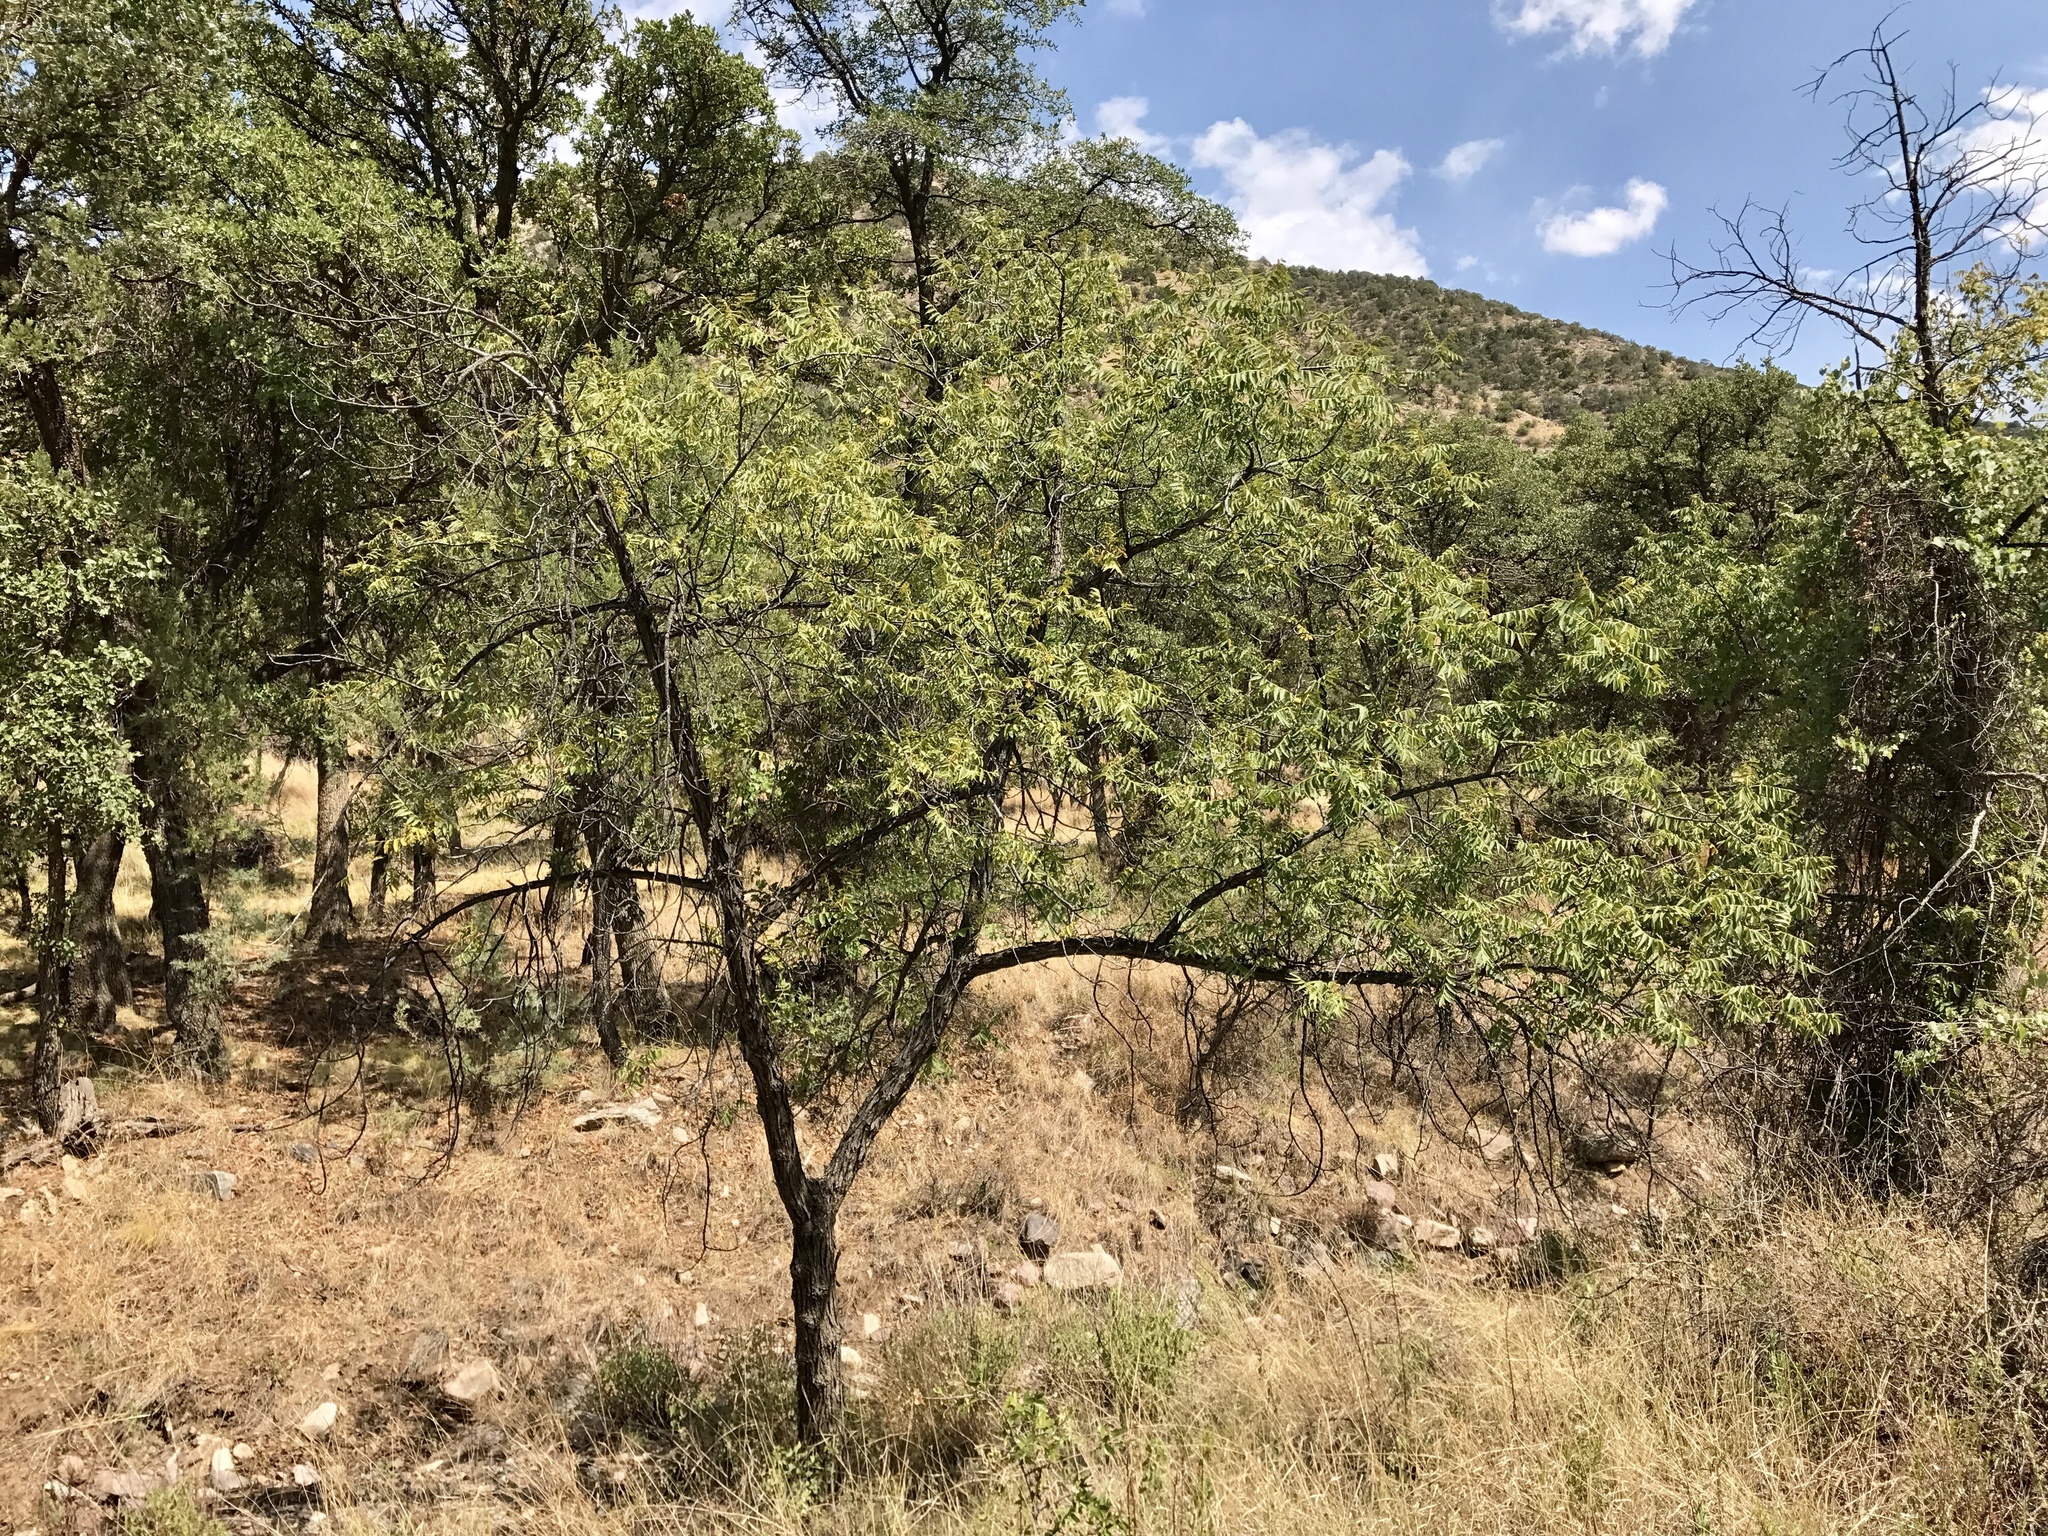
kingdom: Plantae
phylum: Tracheophyta
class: Magnoliopsida
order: Fagales
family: Juglandaceae
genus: Juglans
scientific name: Juglans major
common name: Arizona walnut
